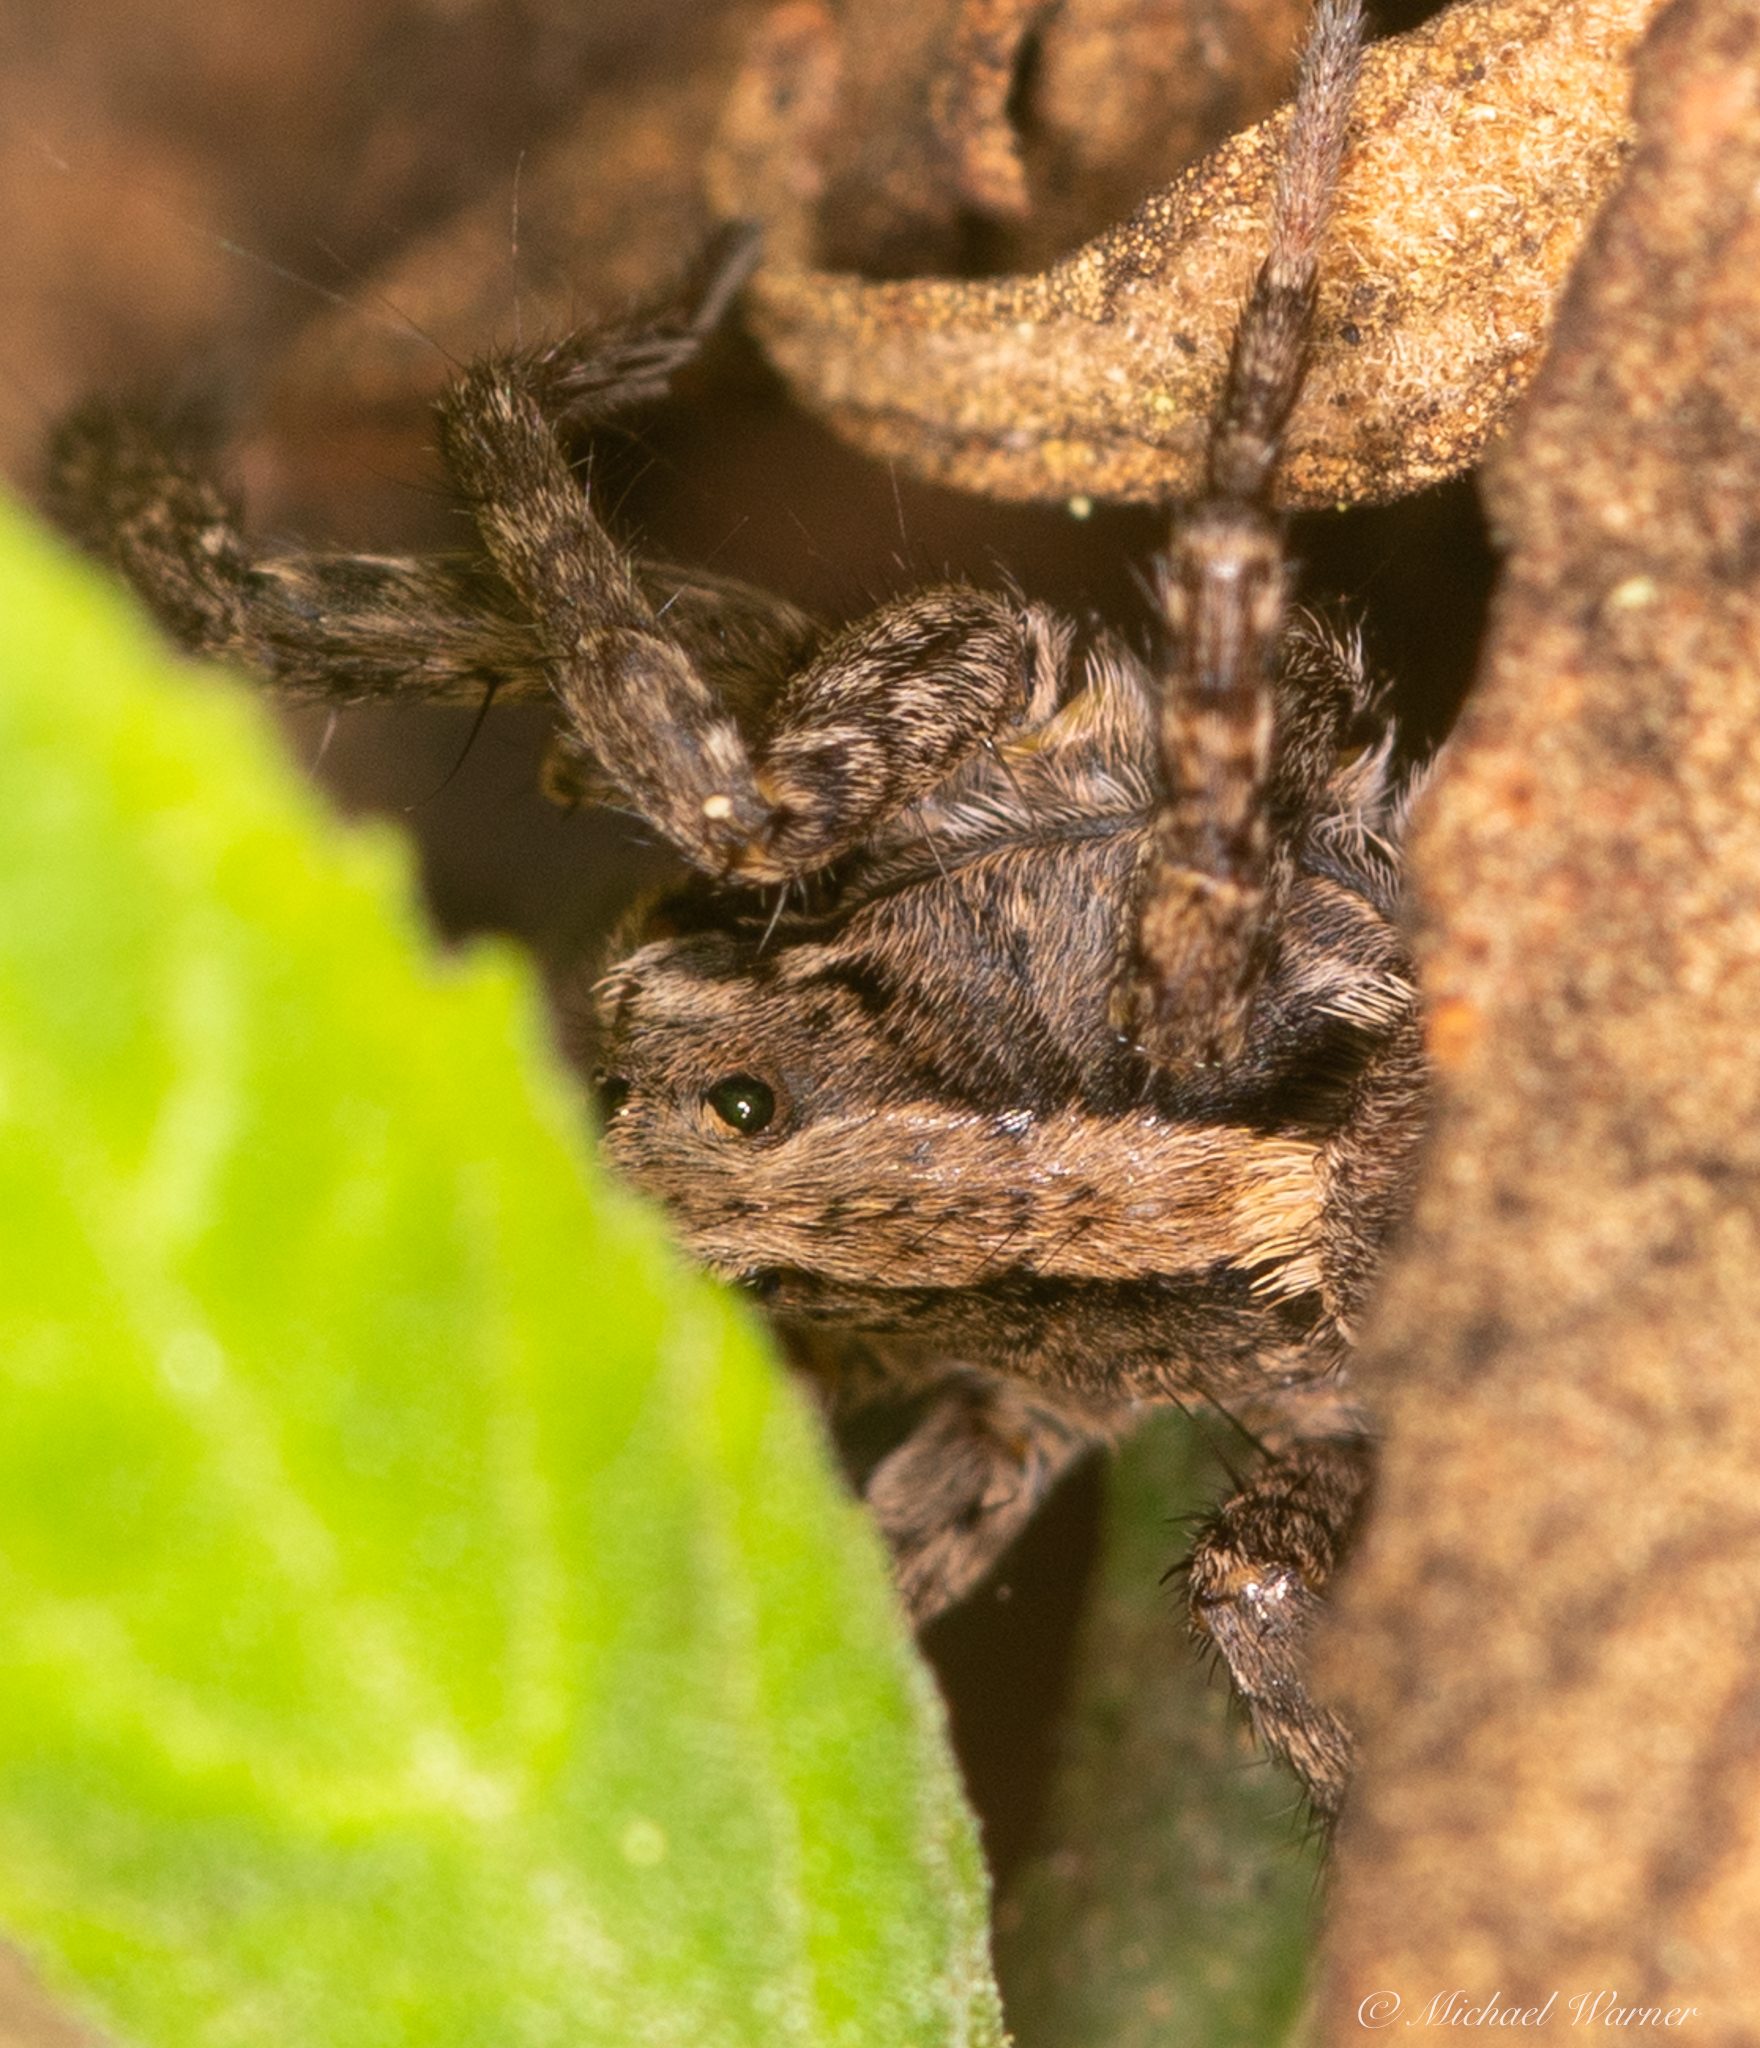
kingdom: Animalia
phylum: Arthropoda
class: Arachnida
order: Araneae
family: Lycosidae
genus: Alopecosa
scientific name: Alopecosa kochi
